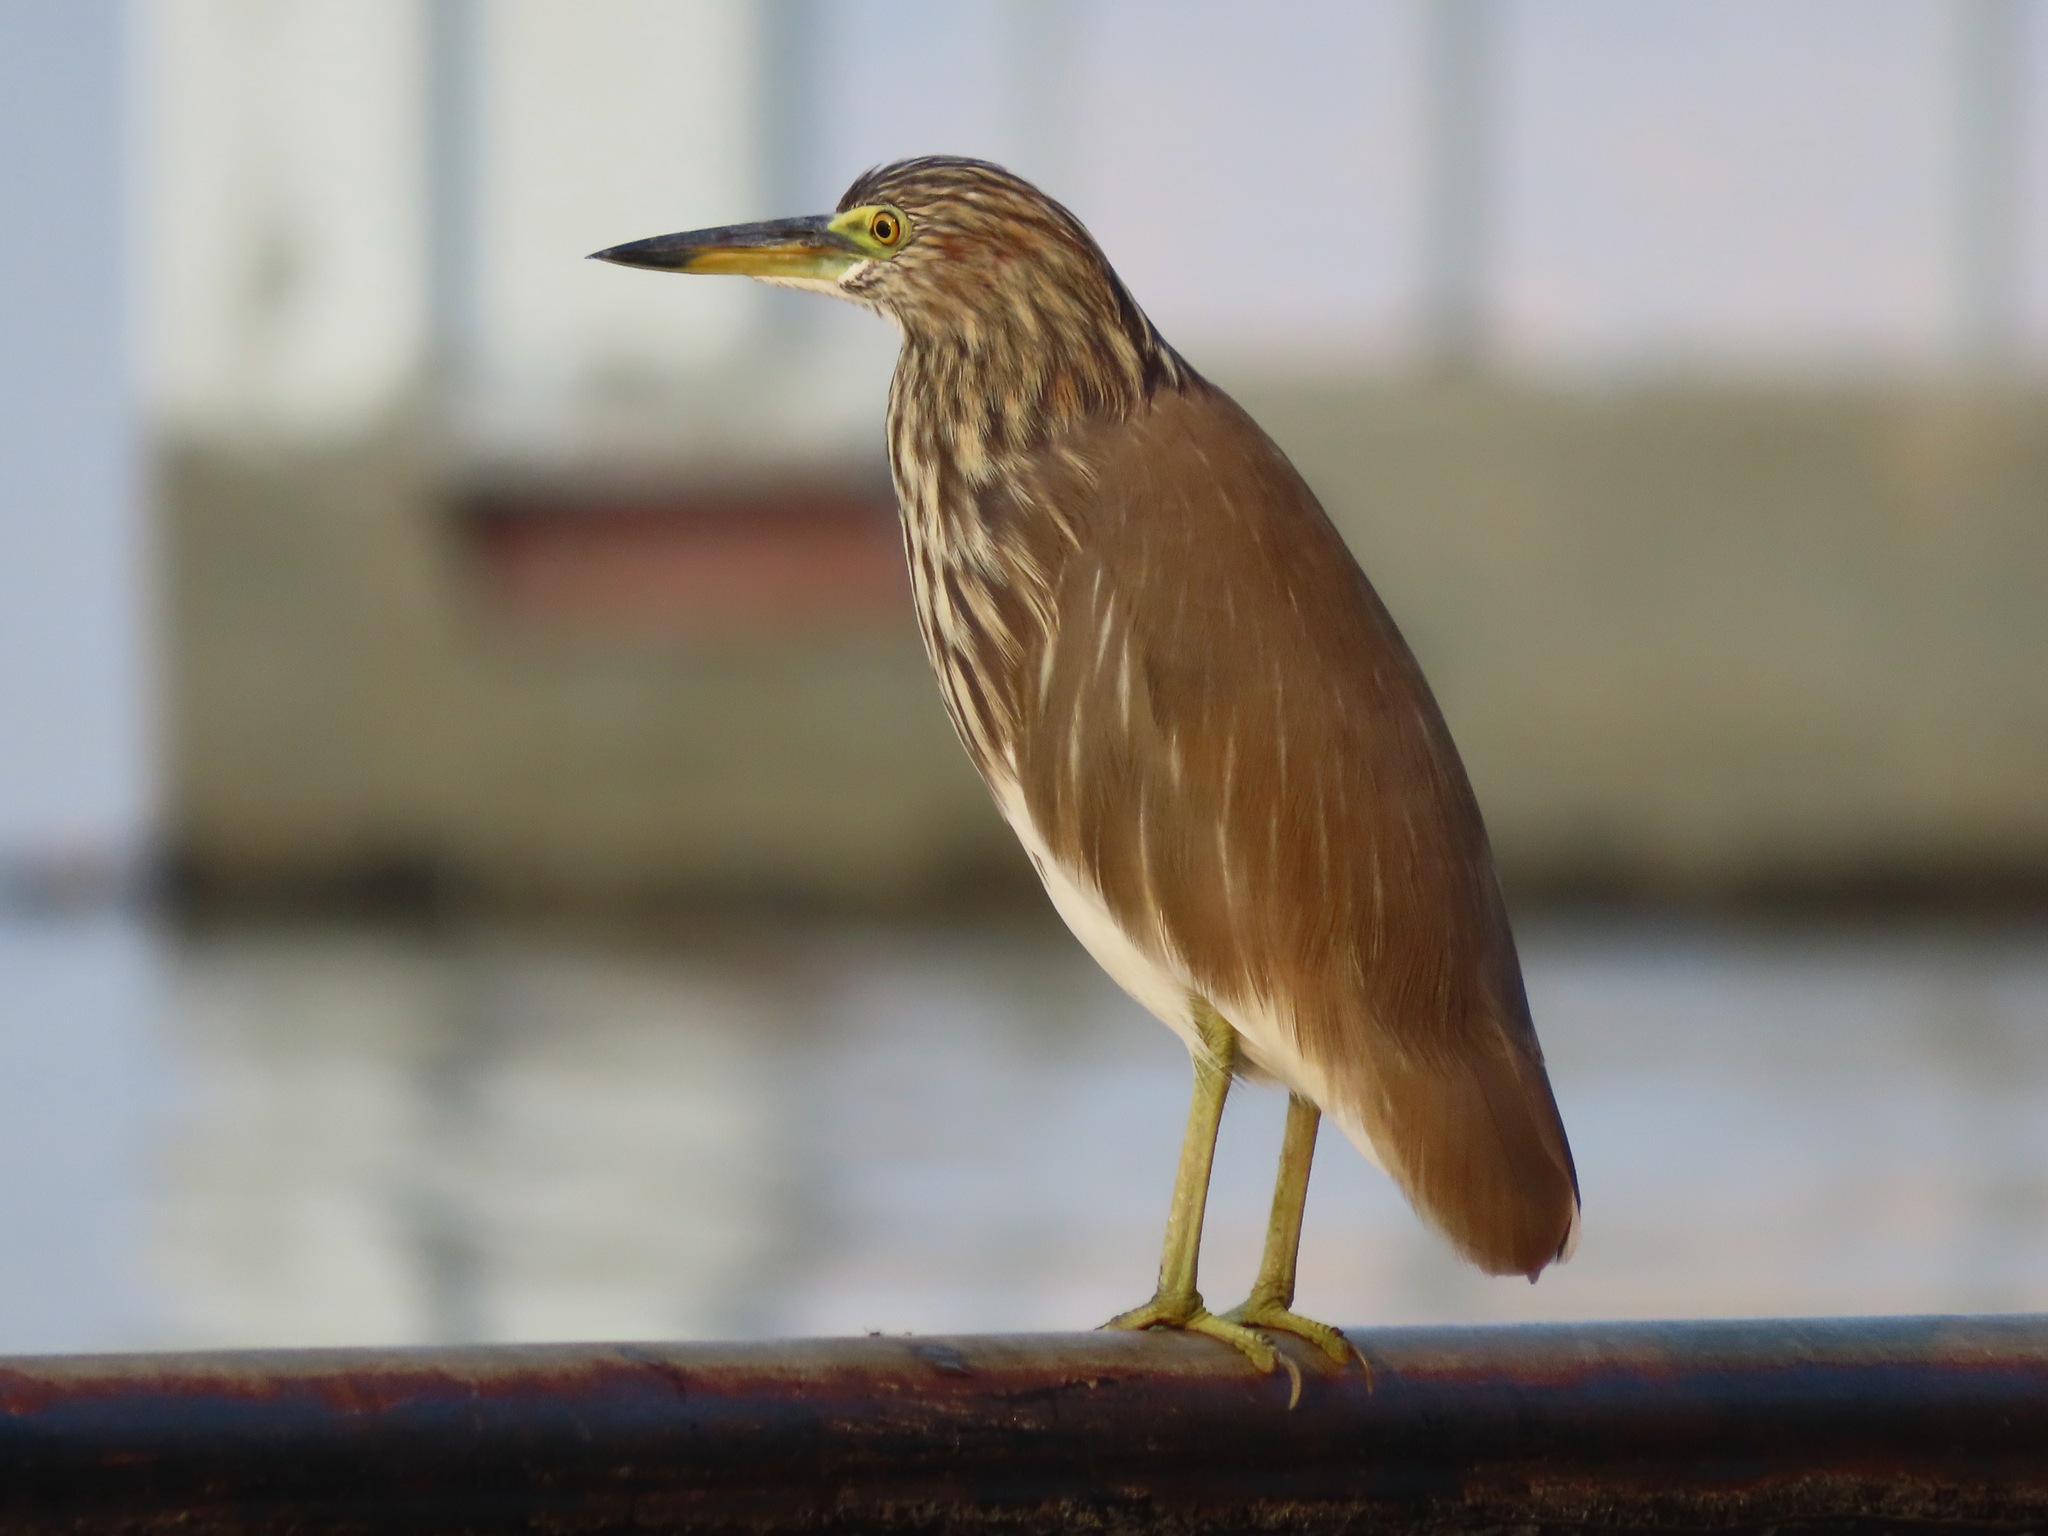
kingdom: Animalia
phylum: Chordata
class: Aves
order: Pelecaniformes
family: Ardeidae
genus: Ardeola
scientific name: Ardeola bacchus
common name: Chinese pond heron
